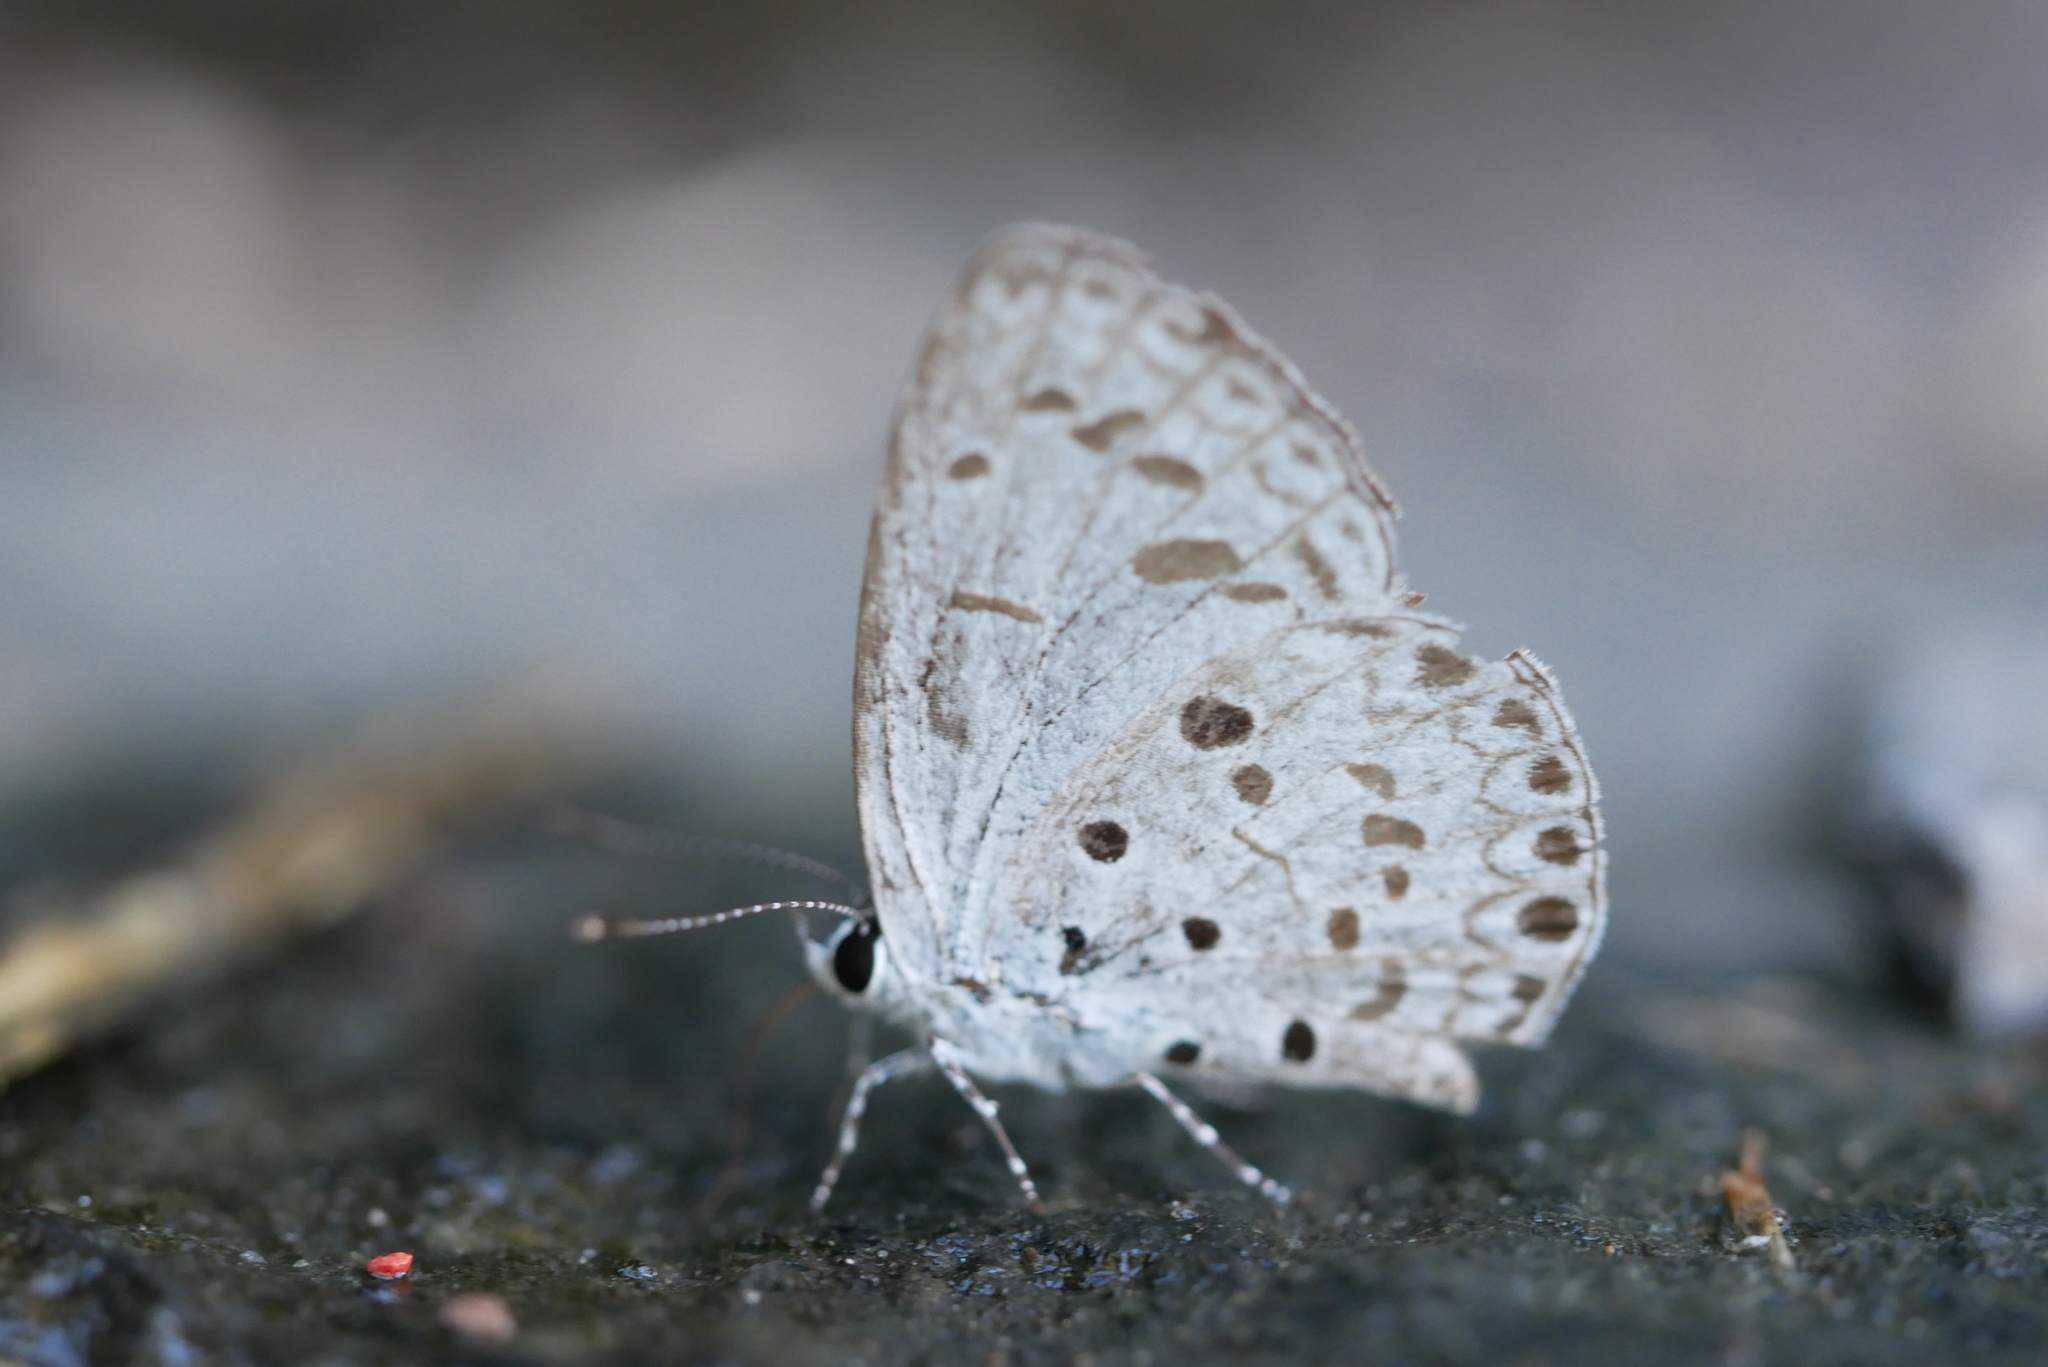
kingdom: Animalia
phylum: Arthropoda
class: Insecta
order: Lepidoptera
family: Lycaenidae
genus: Acytolepis
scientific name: Acytolepis puspa
